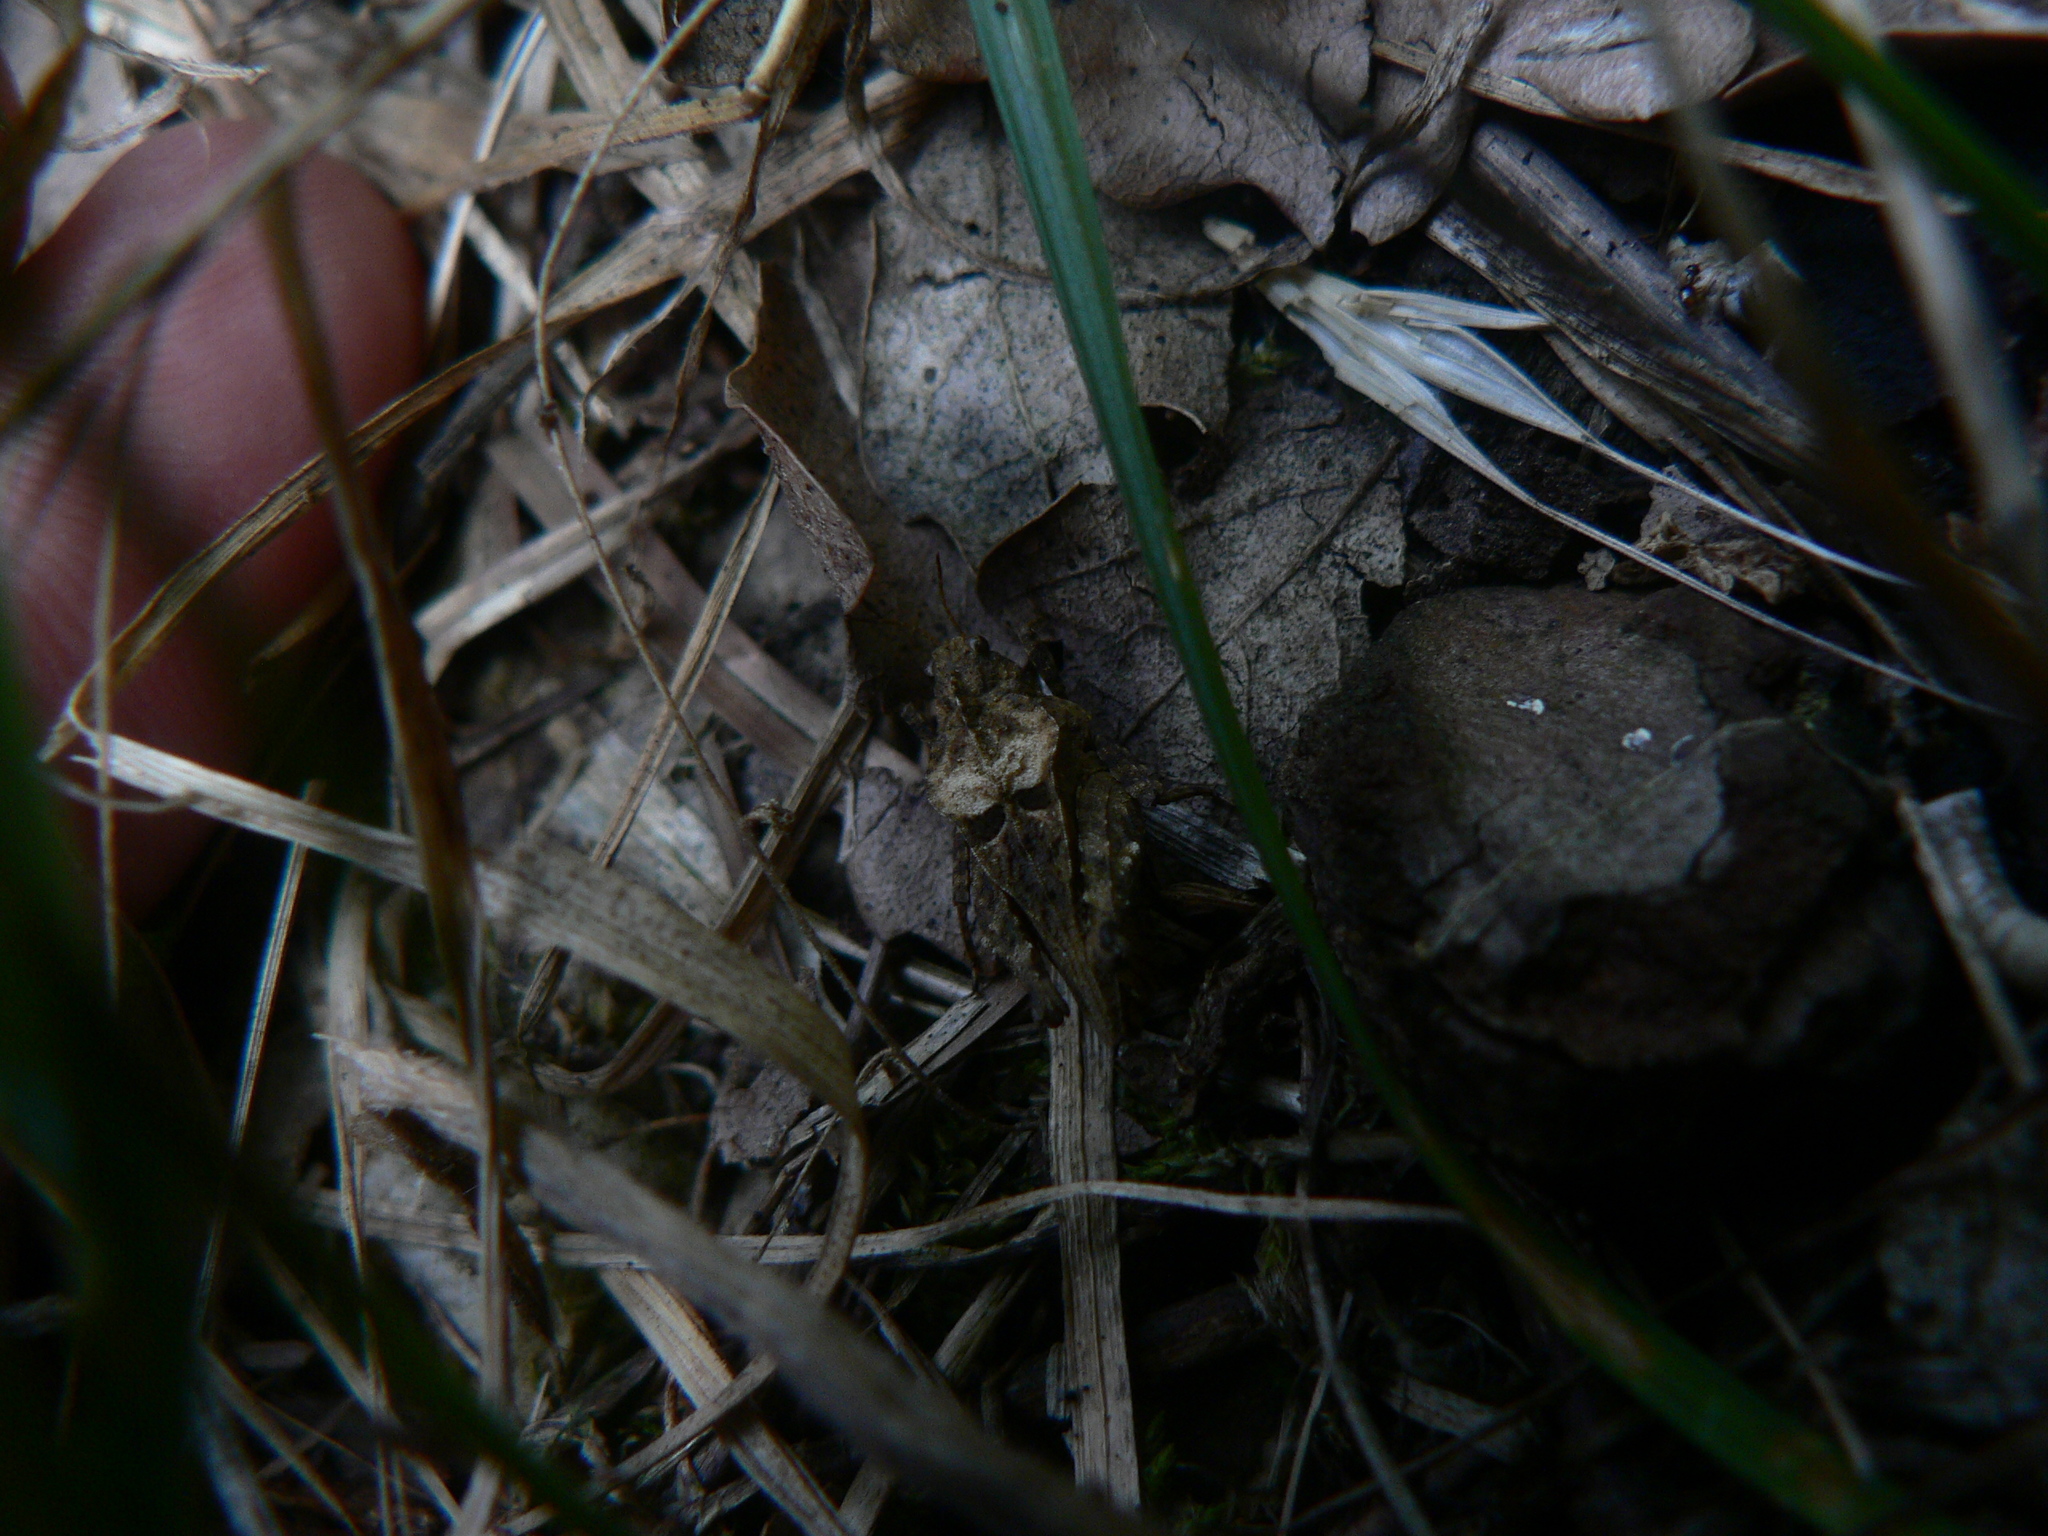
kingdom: Animalia
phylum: Arthropoda
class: Insecta
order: Orthoptera
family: Tetrigidae
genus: Tetrix
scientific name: Tetrix depressa
